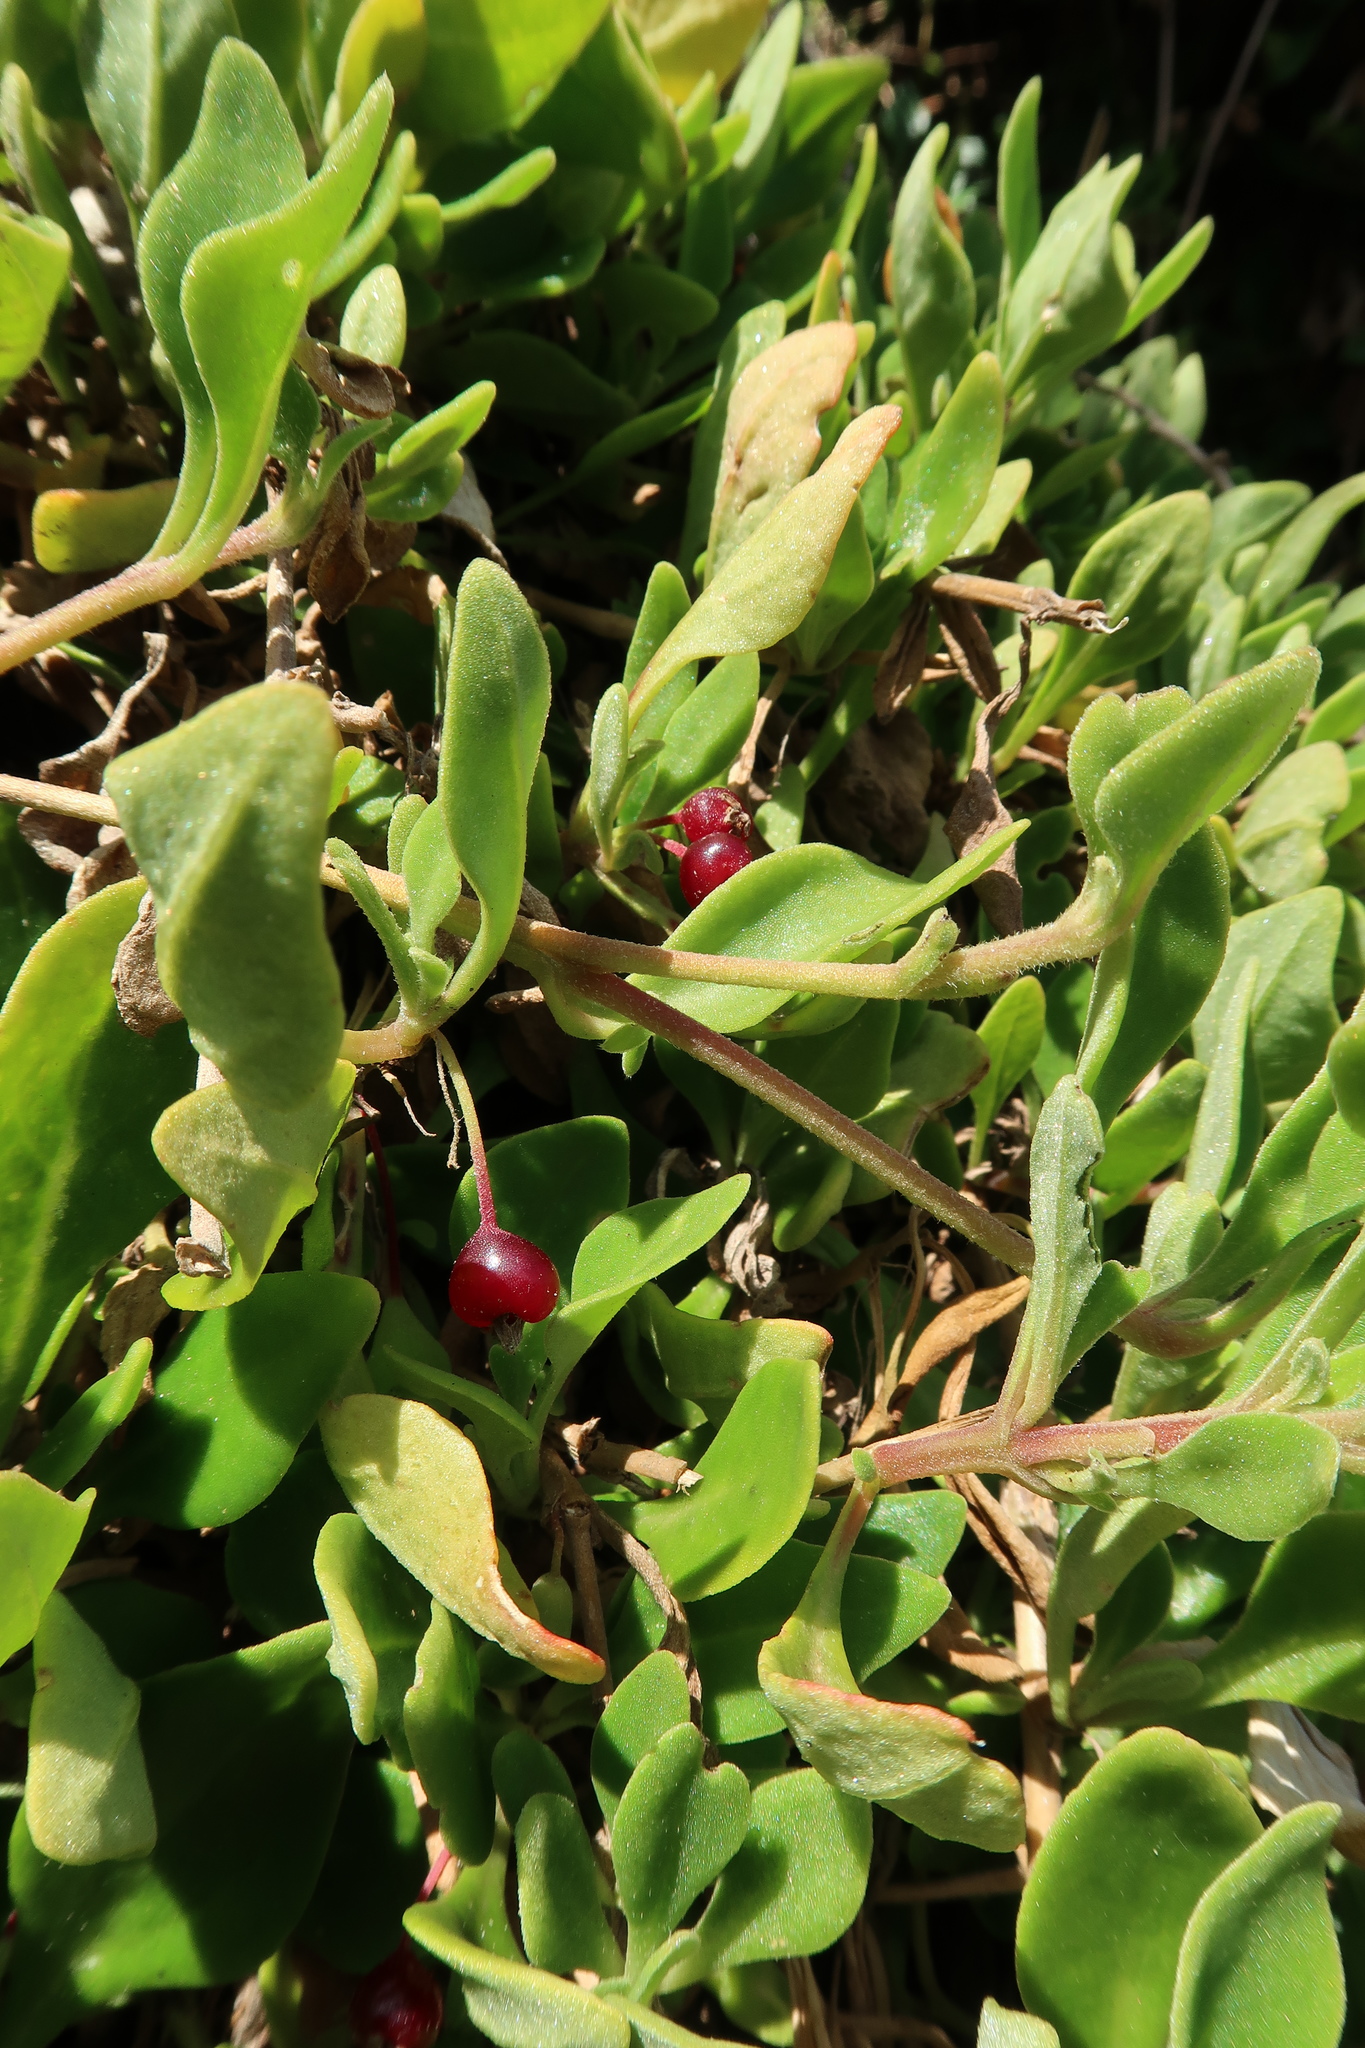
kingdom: Plantae
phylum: Tracheophyta
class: Magnoliopsida
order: Caryophyllales
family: Aizoaceae
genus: Tetragonia
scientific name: Tetragonia implexicoma
